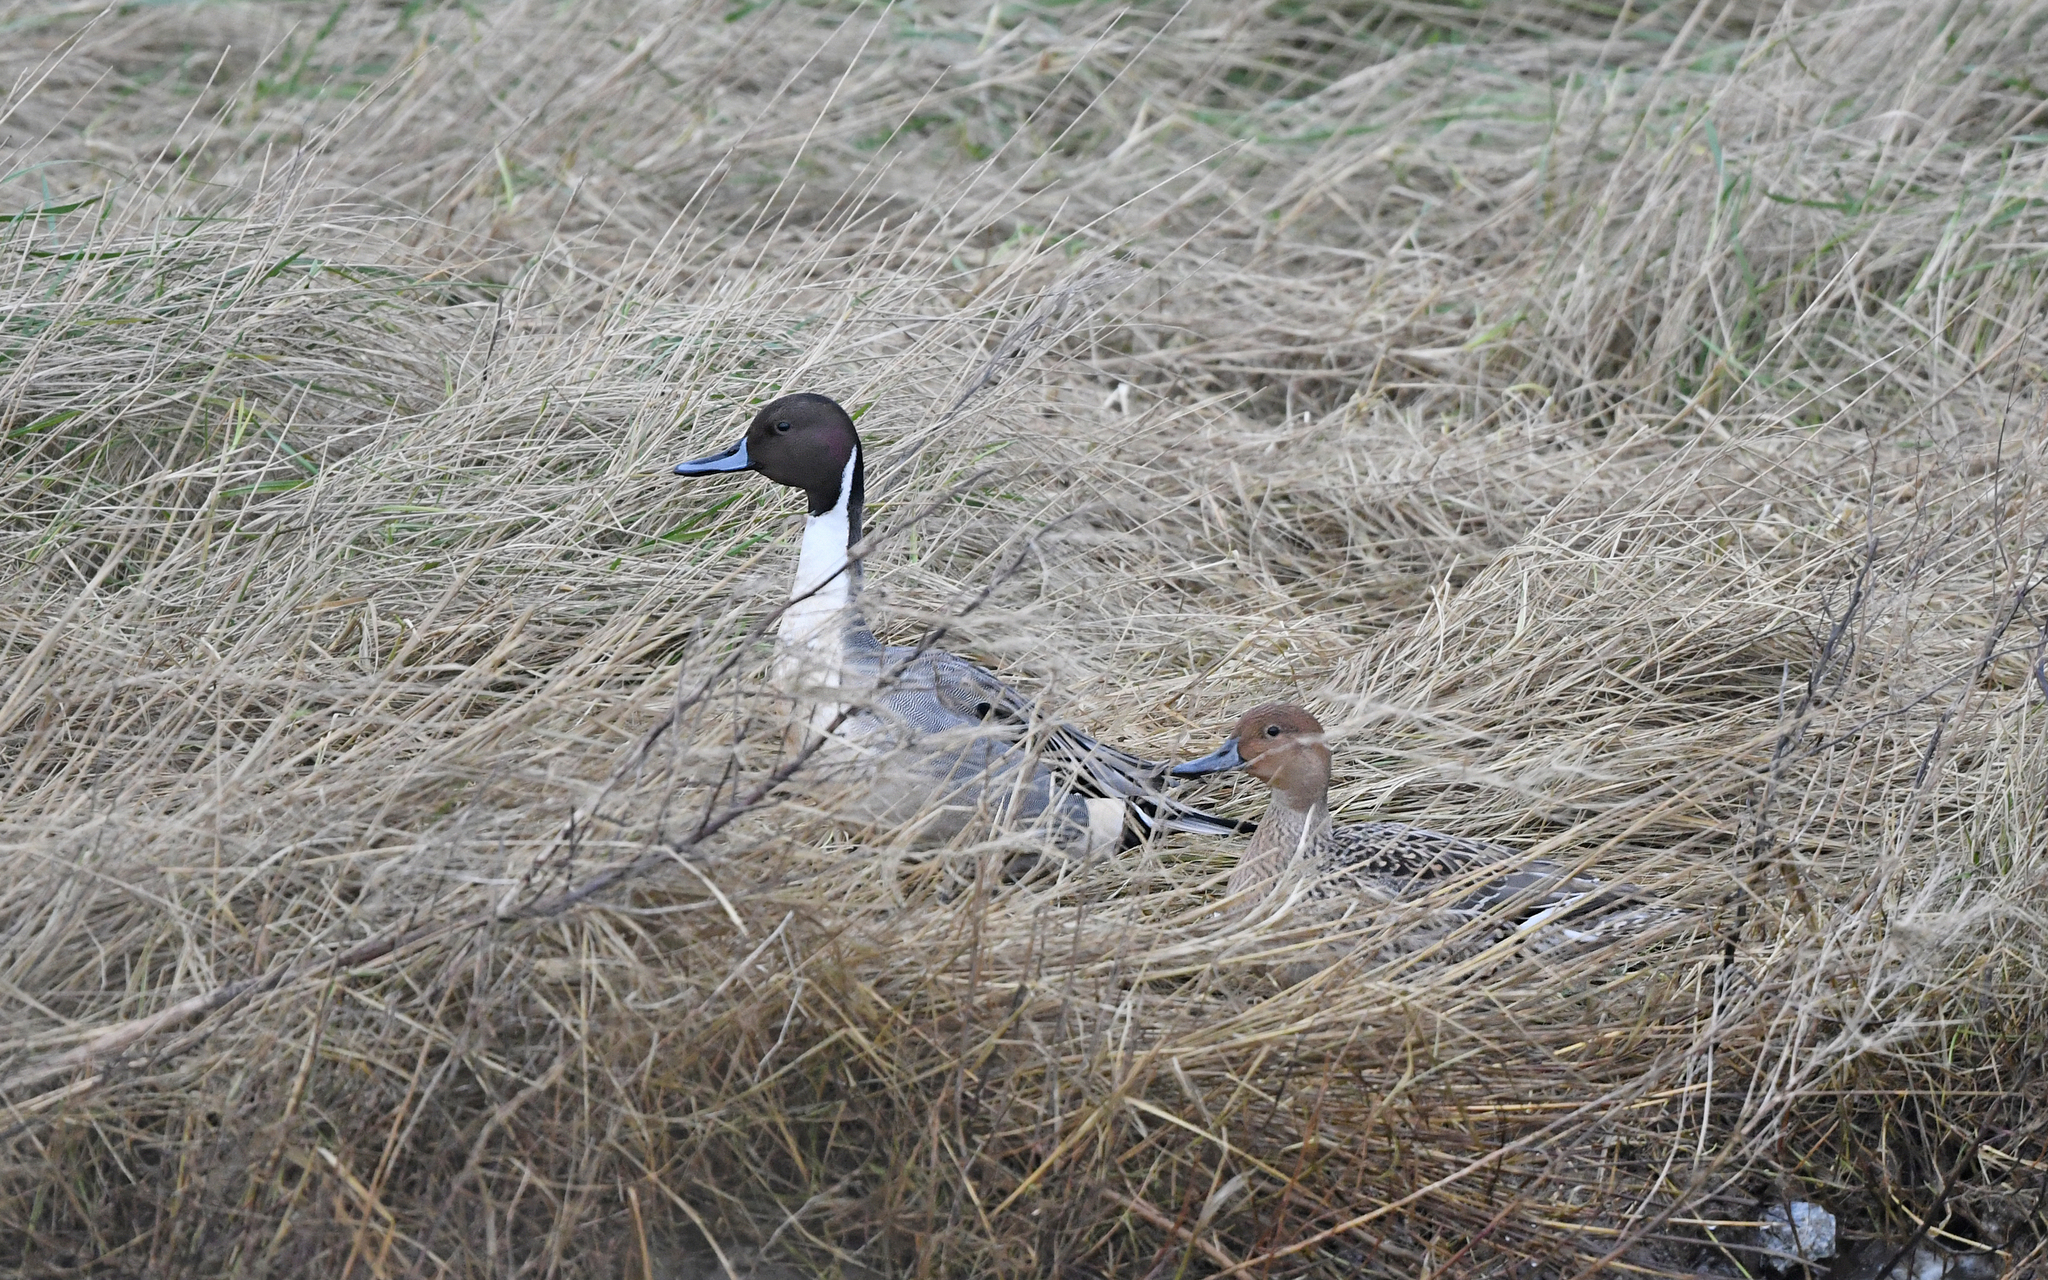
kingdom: Animalia
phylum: Chordata
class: Aves
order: Anseriformes
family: Anatidae
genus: Anas
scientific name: Anas acuta
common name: Northern pintail
